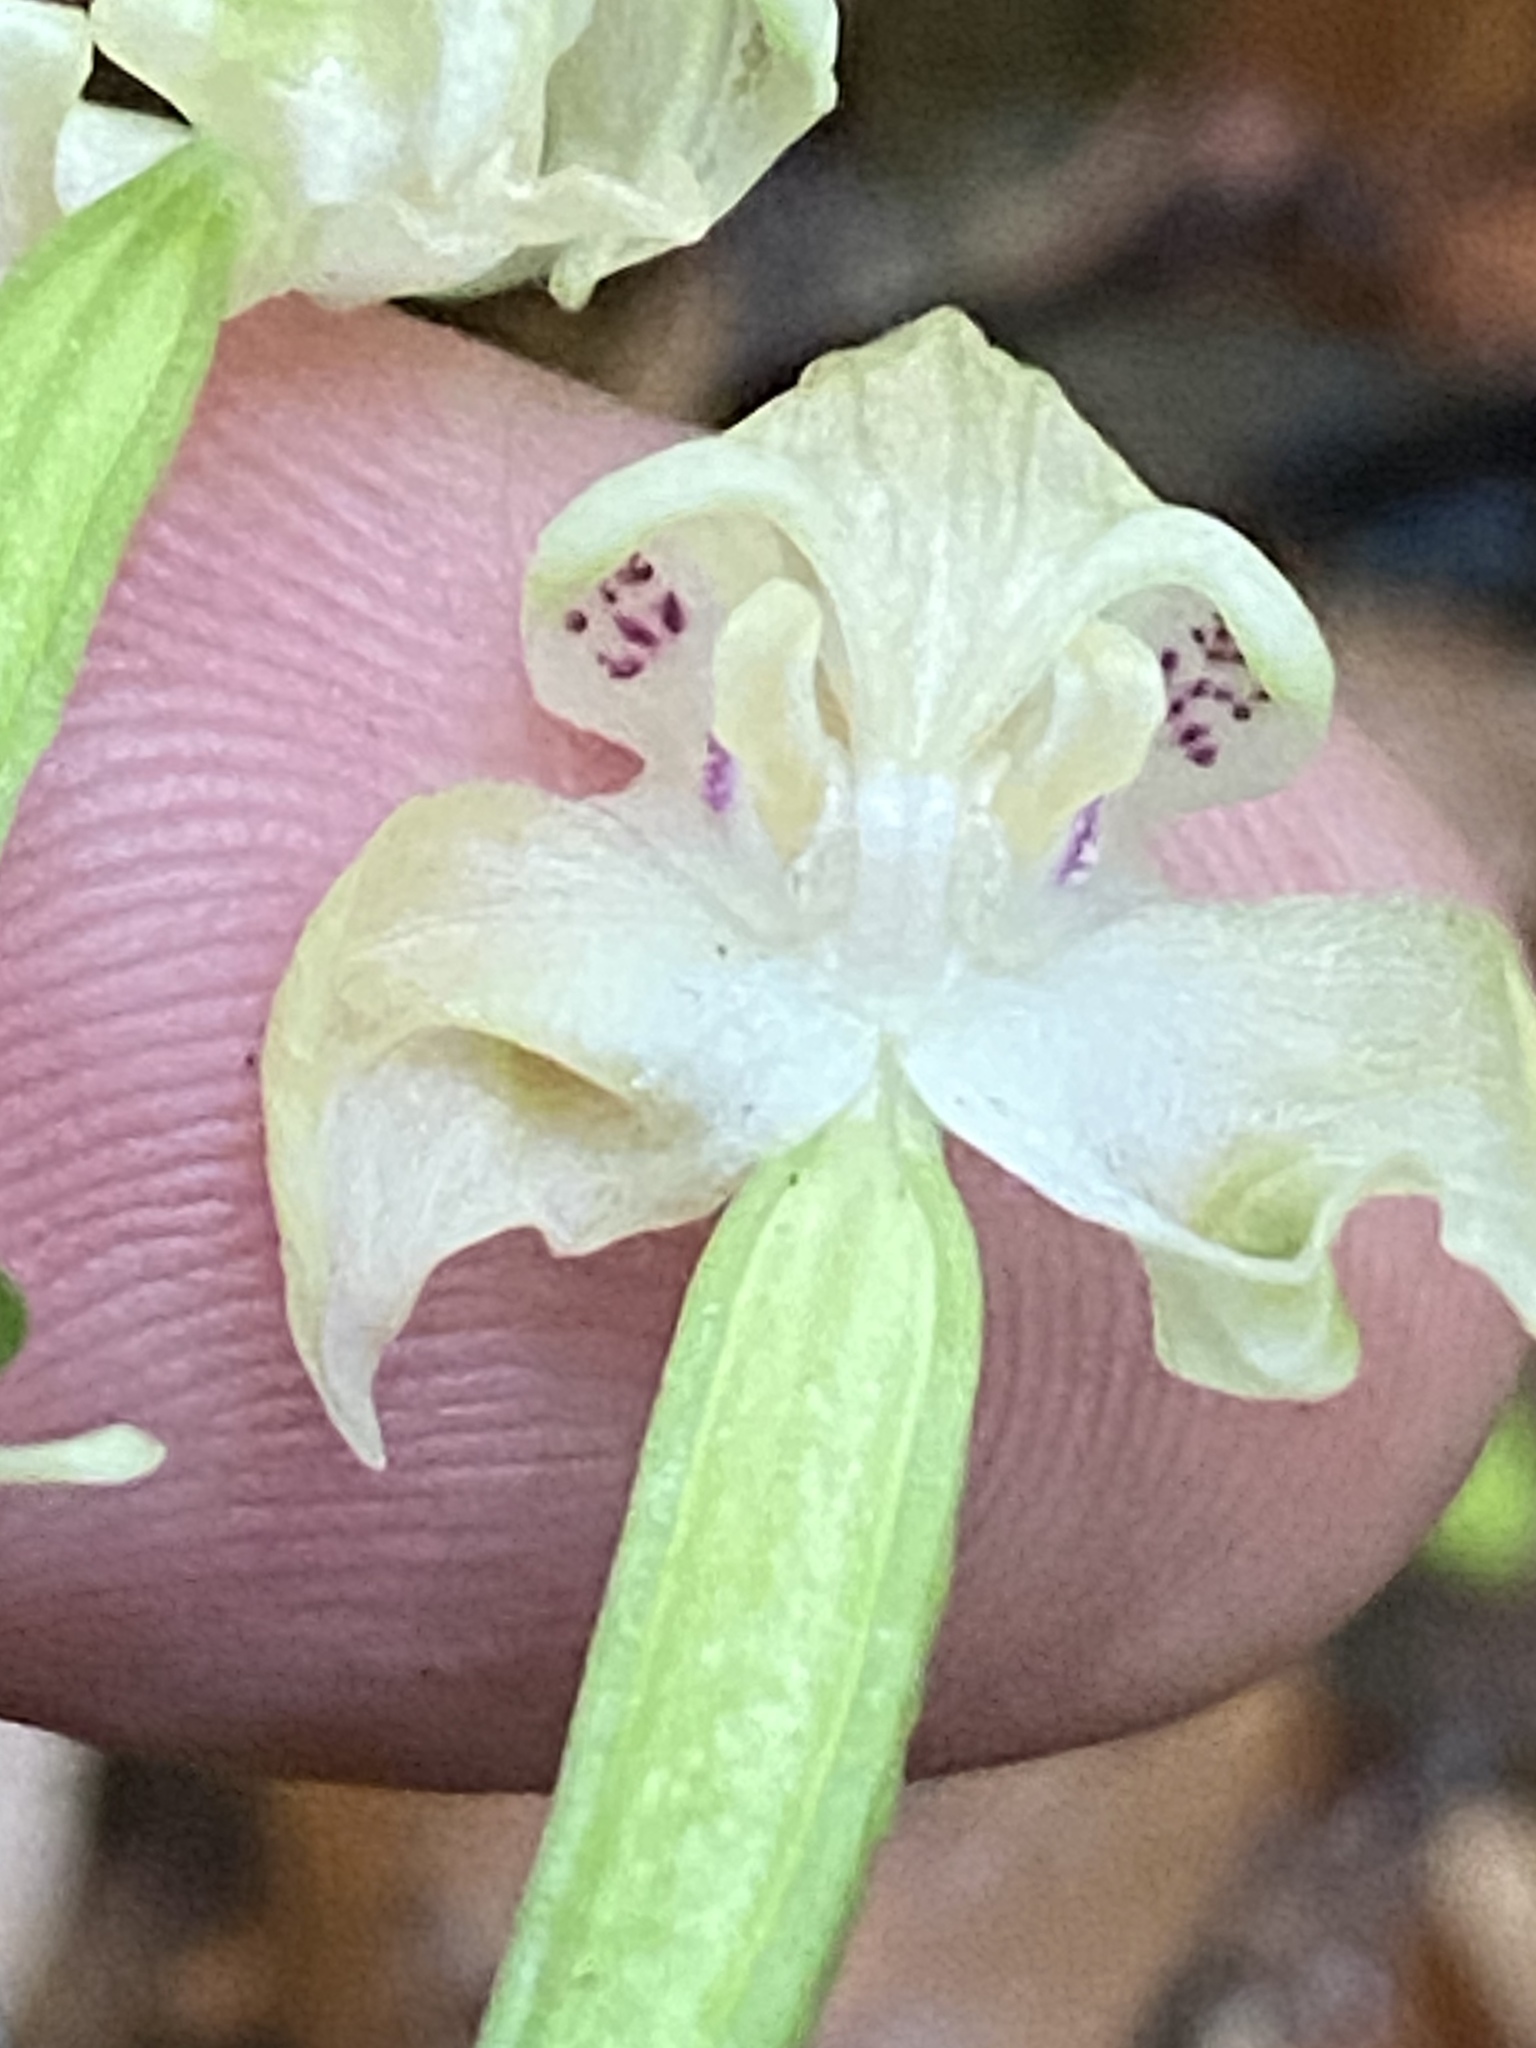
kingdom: Plantae
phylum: Tracheophyta
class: Liliopsida
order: Asparagales
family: Orchidaceae
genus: Disperis
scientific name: Disperis lindleyana
